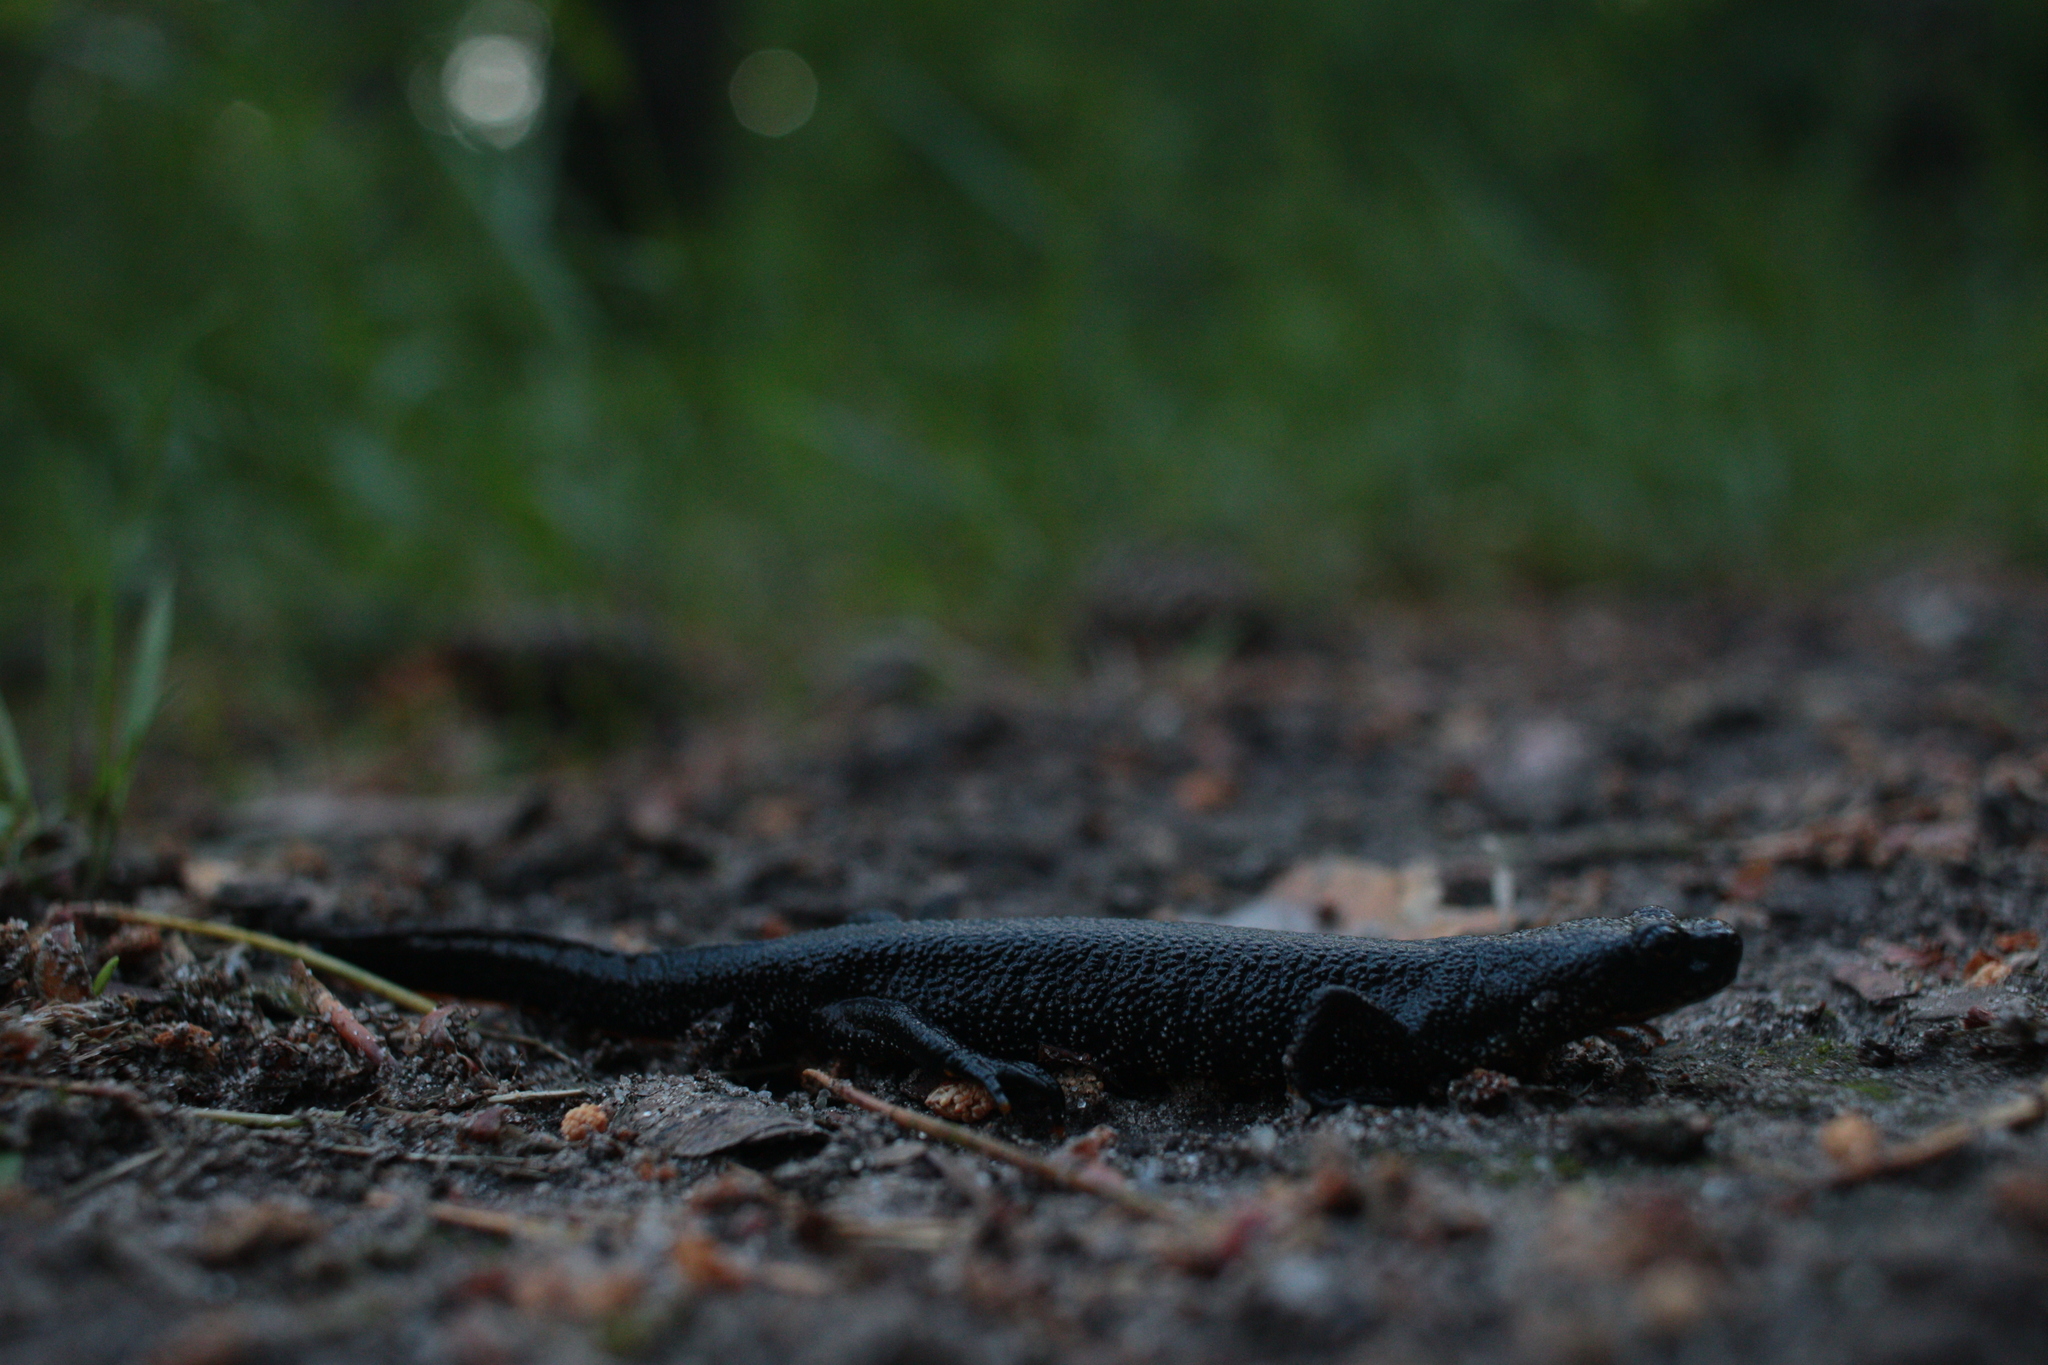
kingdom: Animalia
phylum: Chordata
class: Amphibia
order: Caudata
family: Salamandridae
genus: Triturus
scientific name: Triturus cristatus
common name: Crested newt
